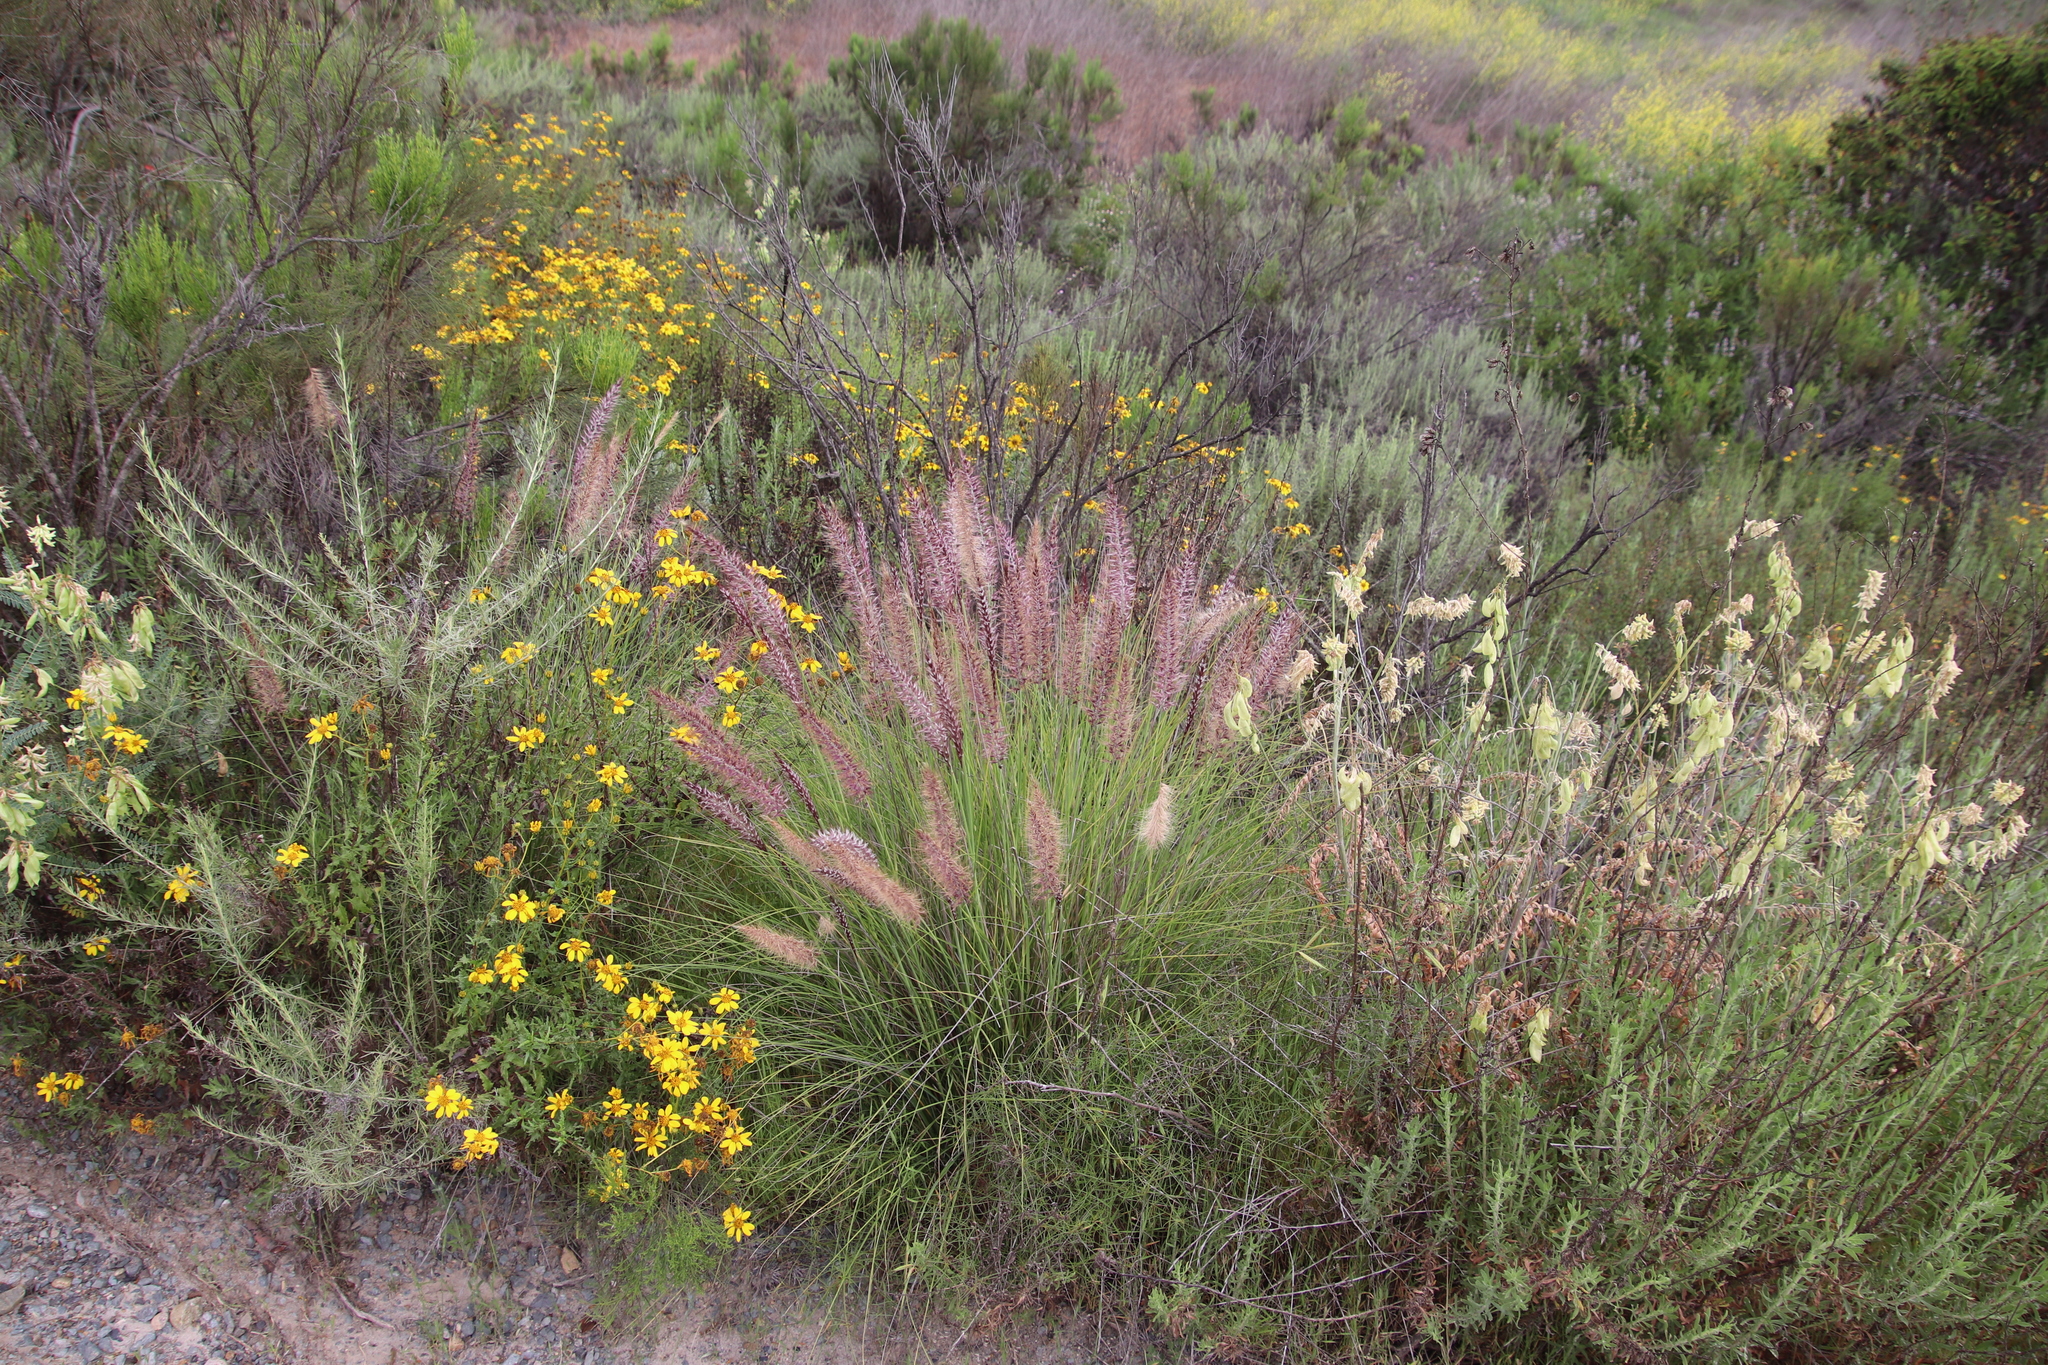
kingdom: Plantae
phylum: Tracheophyta
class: Liliopsida
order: Poales
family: Poaceae
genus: Cenchrus
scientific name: Cenchrus setaceus
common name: Crimson fountaingrass
